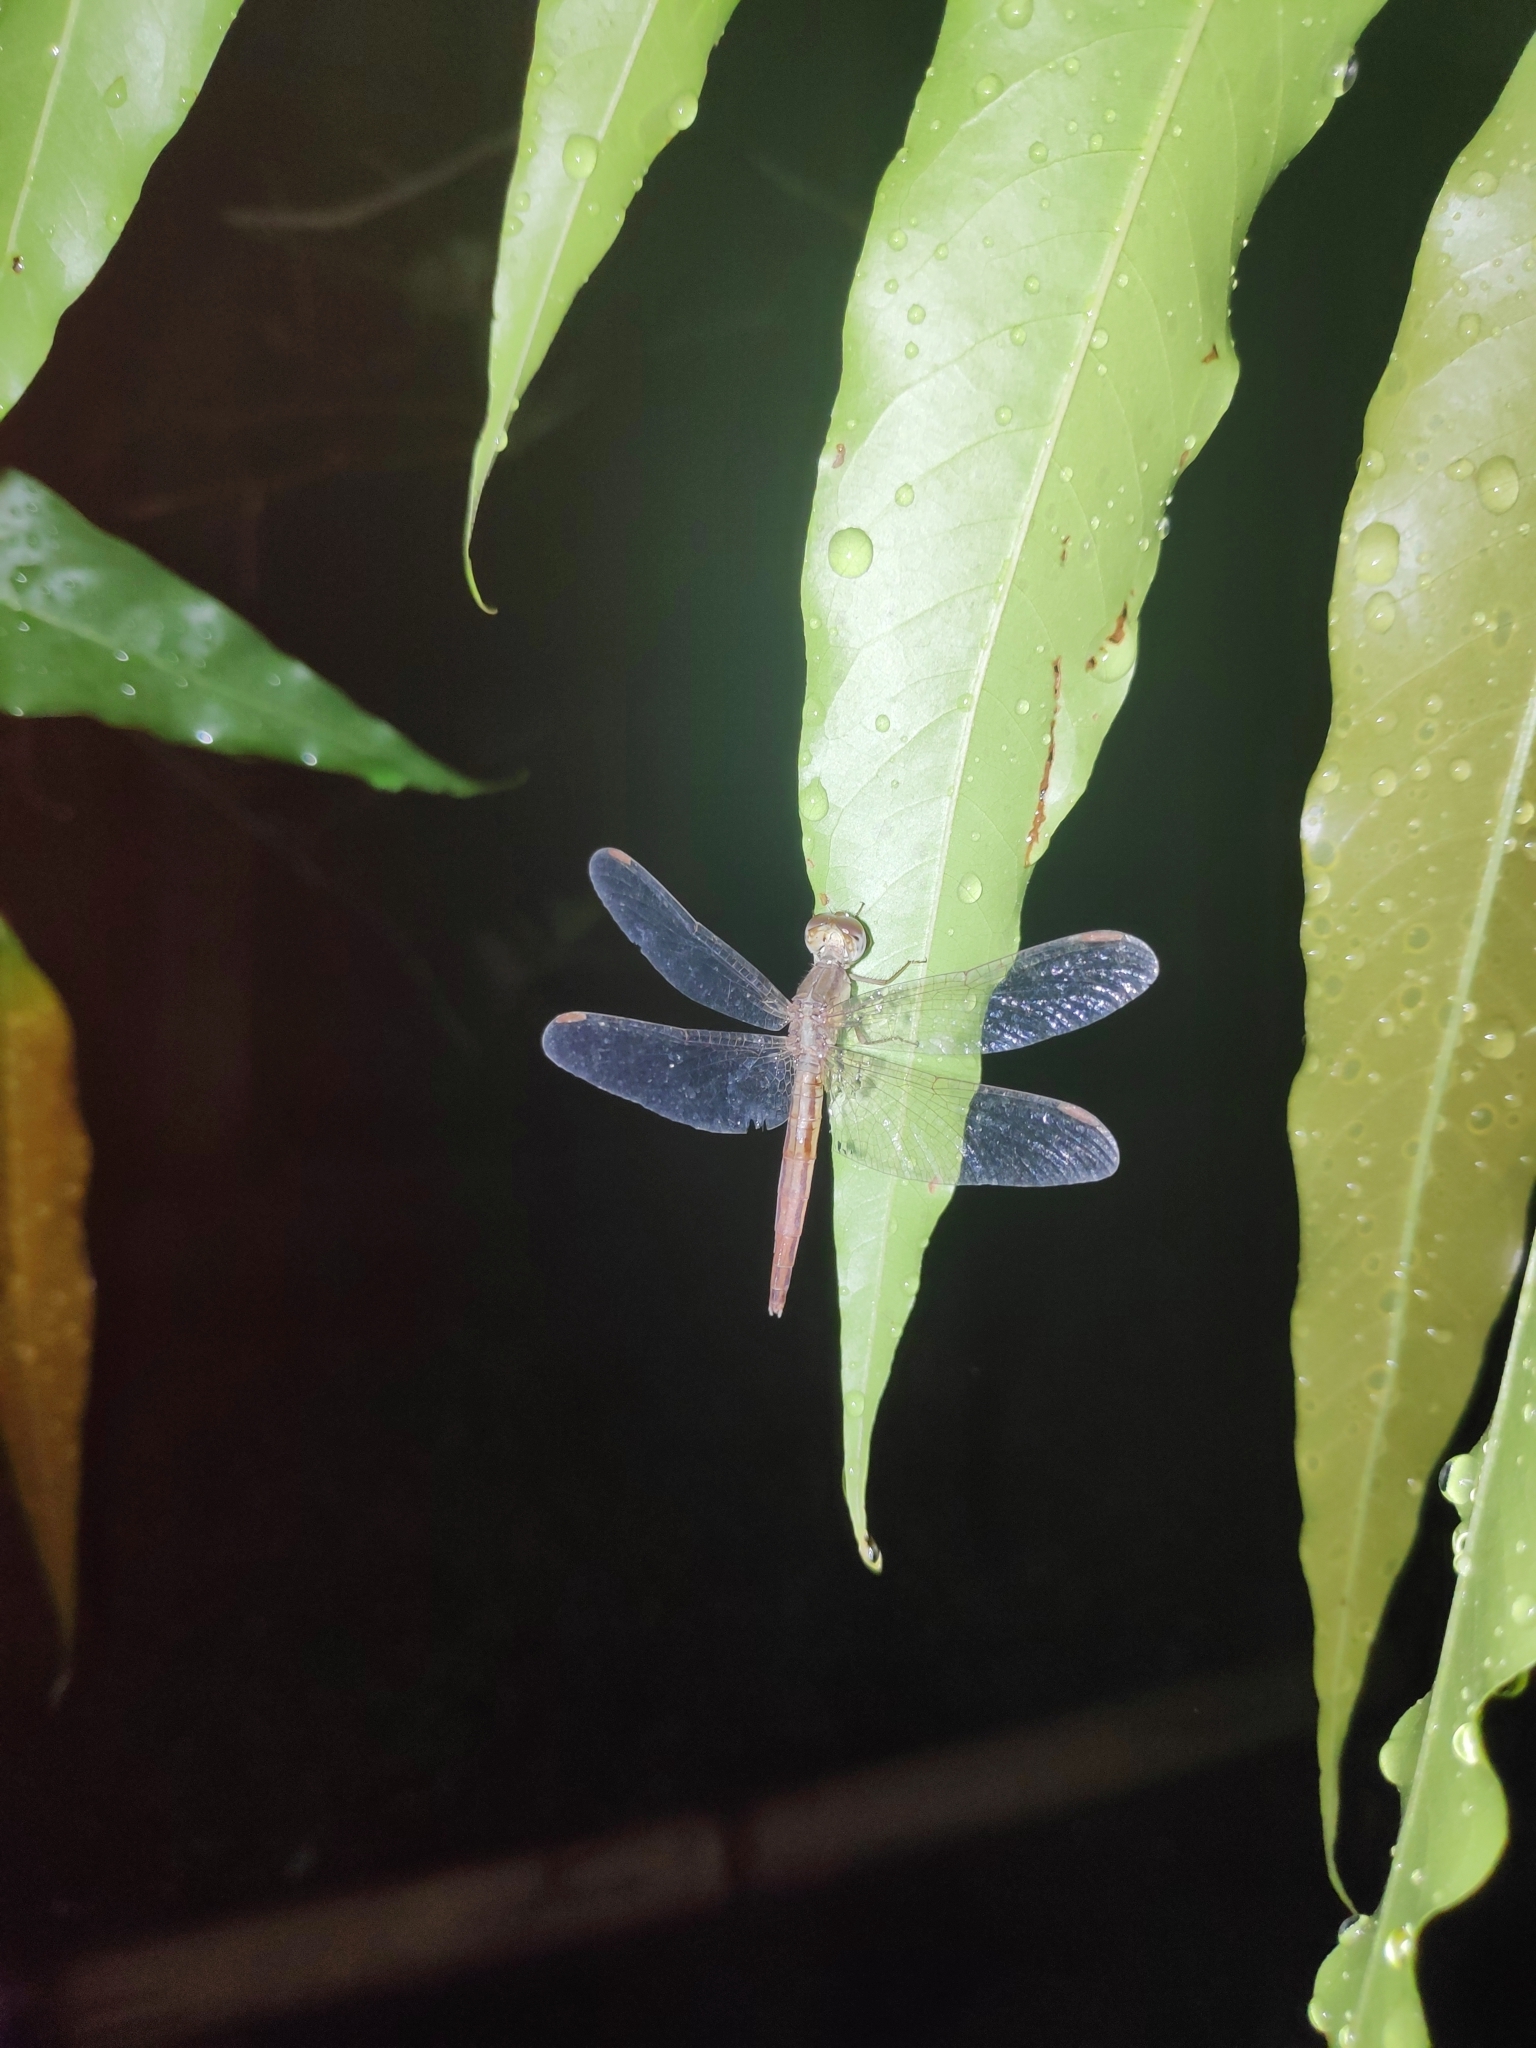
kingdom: Animalia
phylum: Arthropoda
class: Insecta
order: Odonata
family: Libellulidae
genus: Neurothemis
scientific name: Neurothemis intermedia
